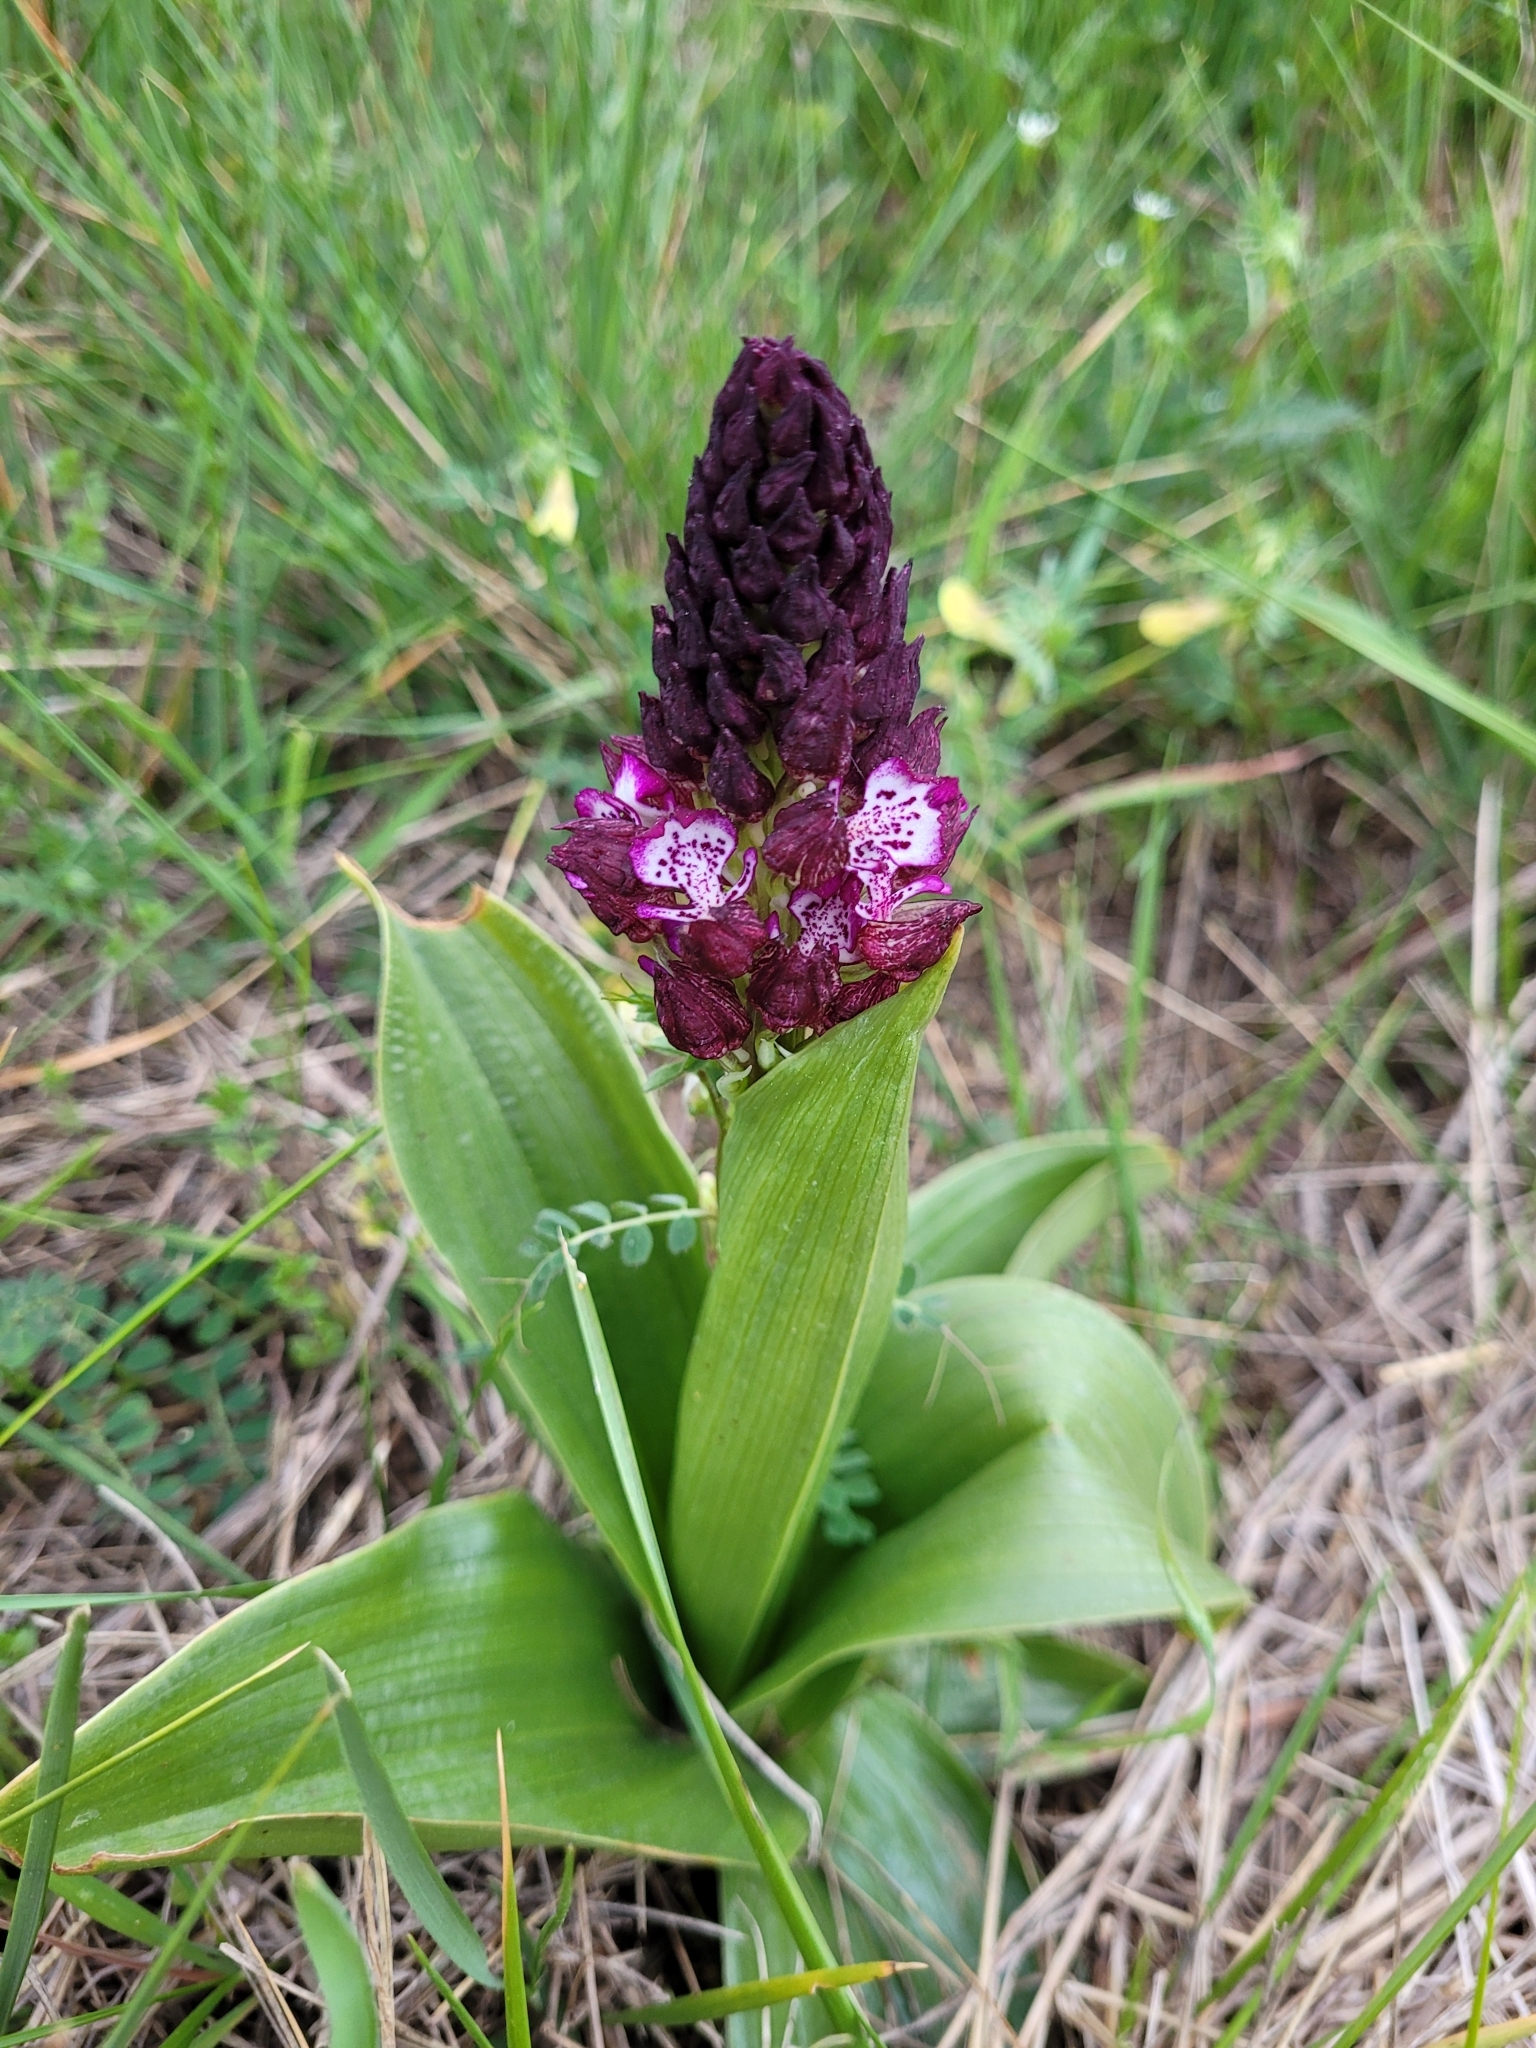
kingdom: Plantae
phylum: Tracheophyta
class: Liliopsida
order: Asparagales
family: Orchidaceae
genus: Orchis
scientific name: Orchis purpurea
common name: Lady orchid
